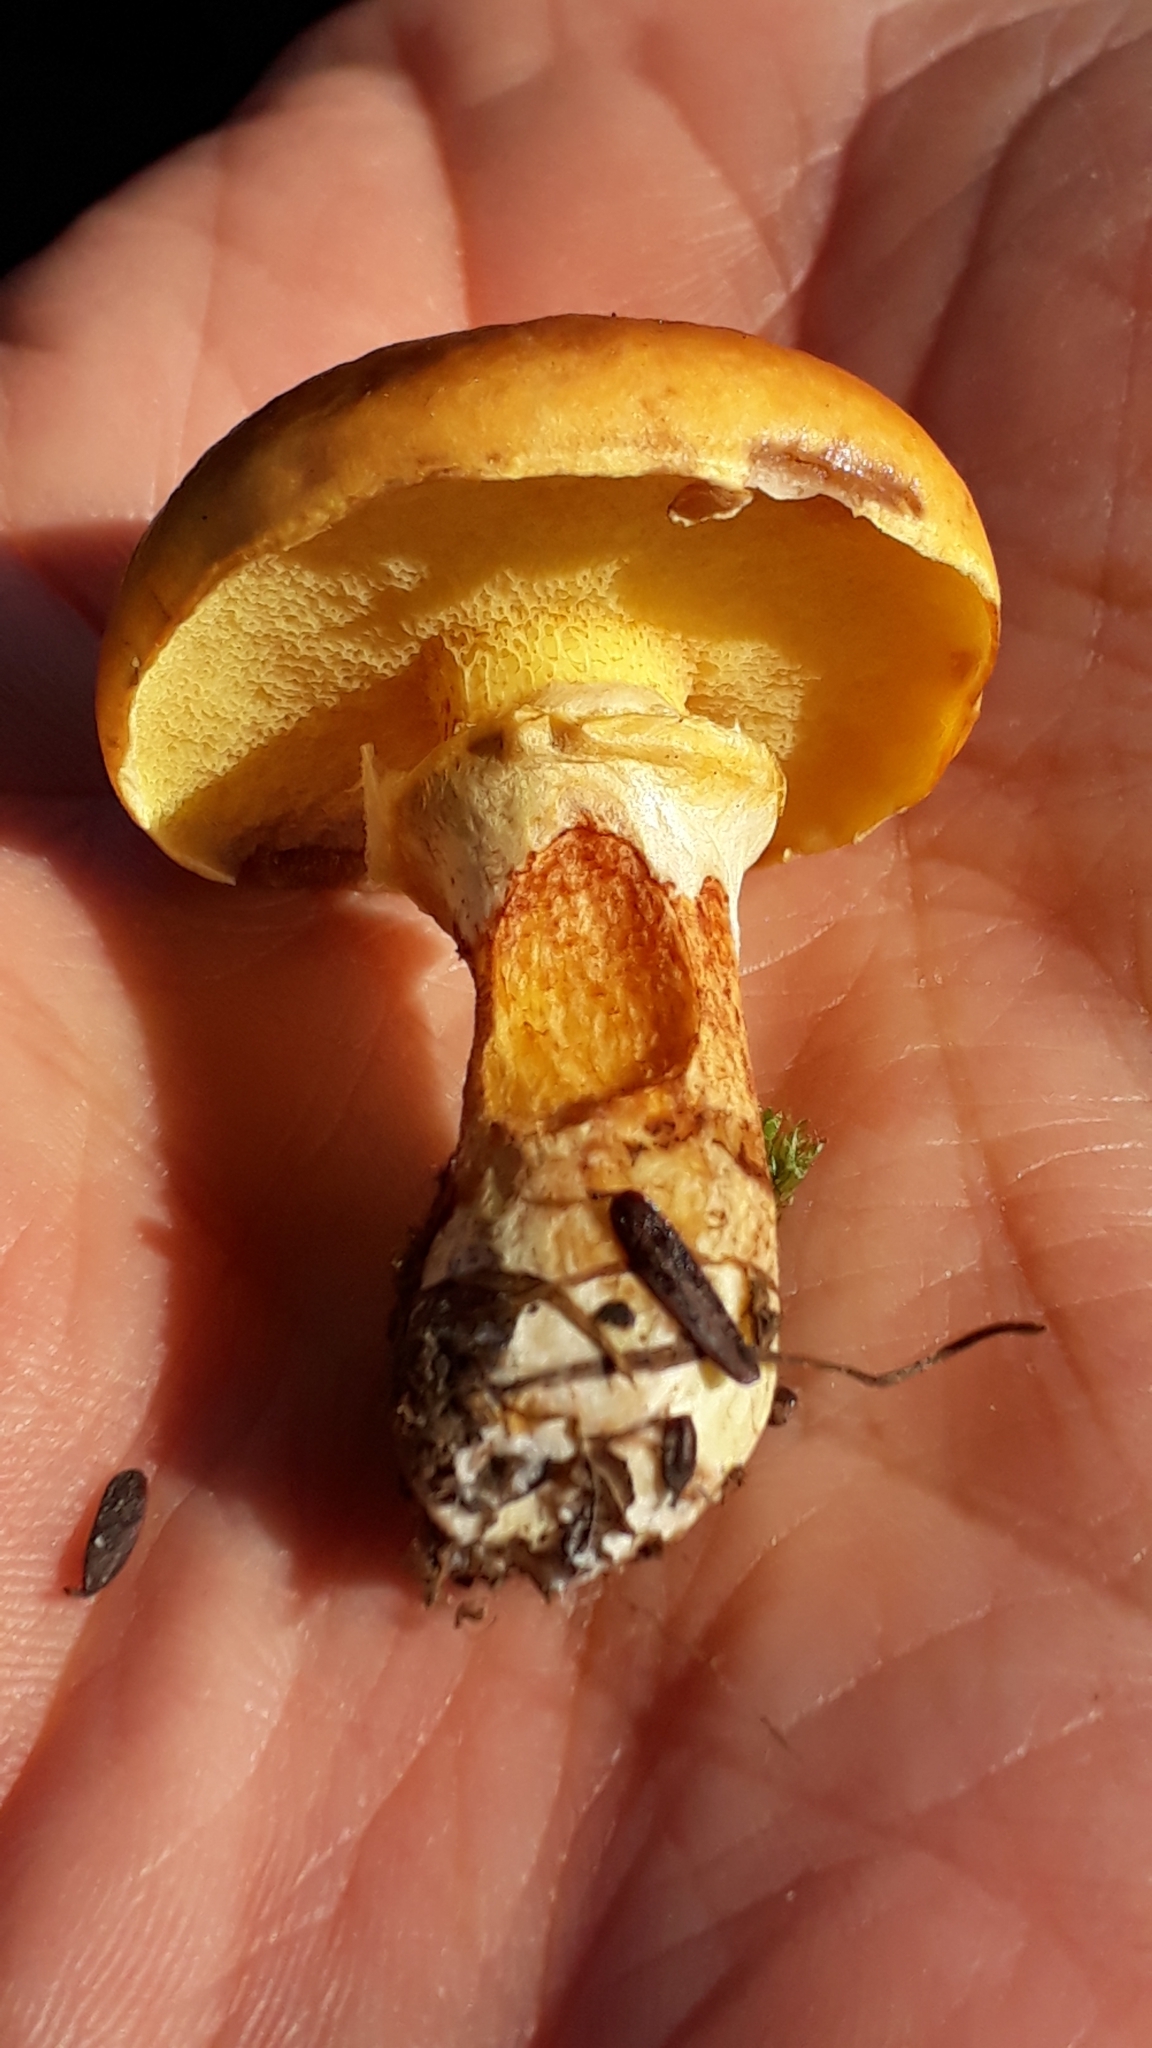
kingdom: Fungi
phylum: Basidiomycota
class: Agaricomycetes
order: Boletales
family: Suillaceae
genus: Suillus
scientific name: Suillus luteus
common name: Slippery jack
